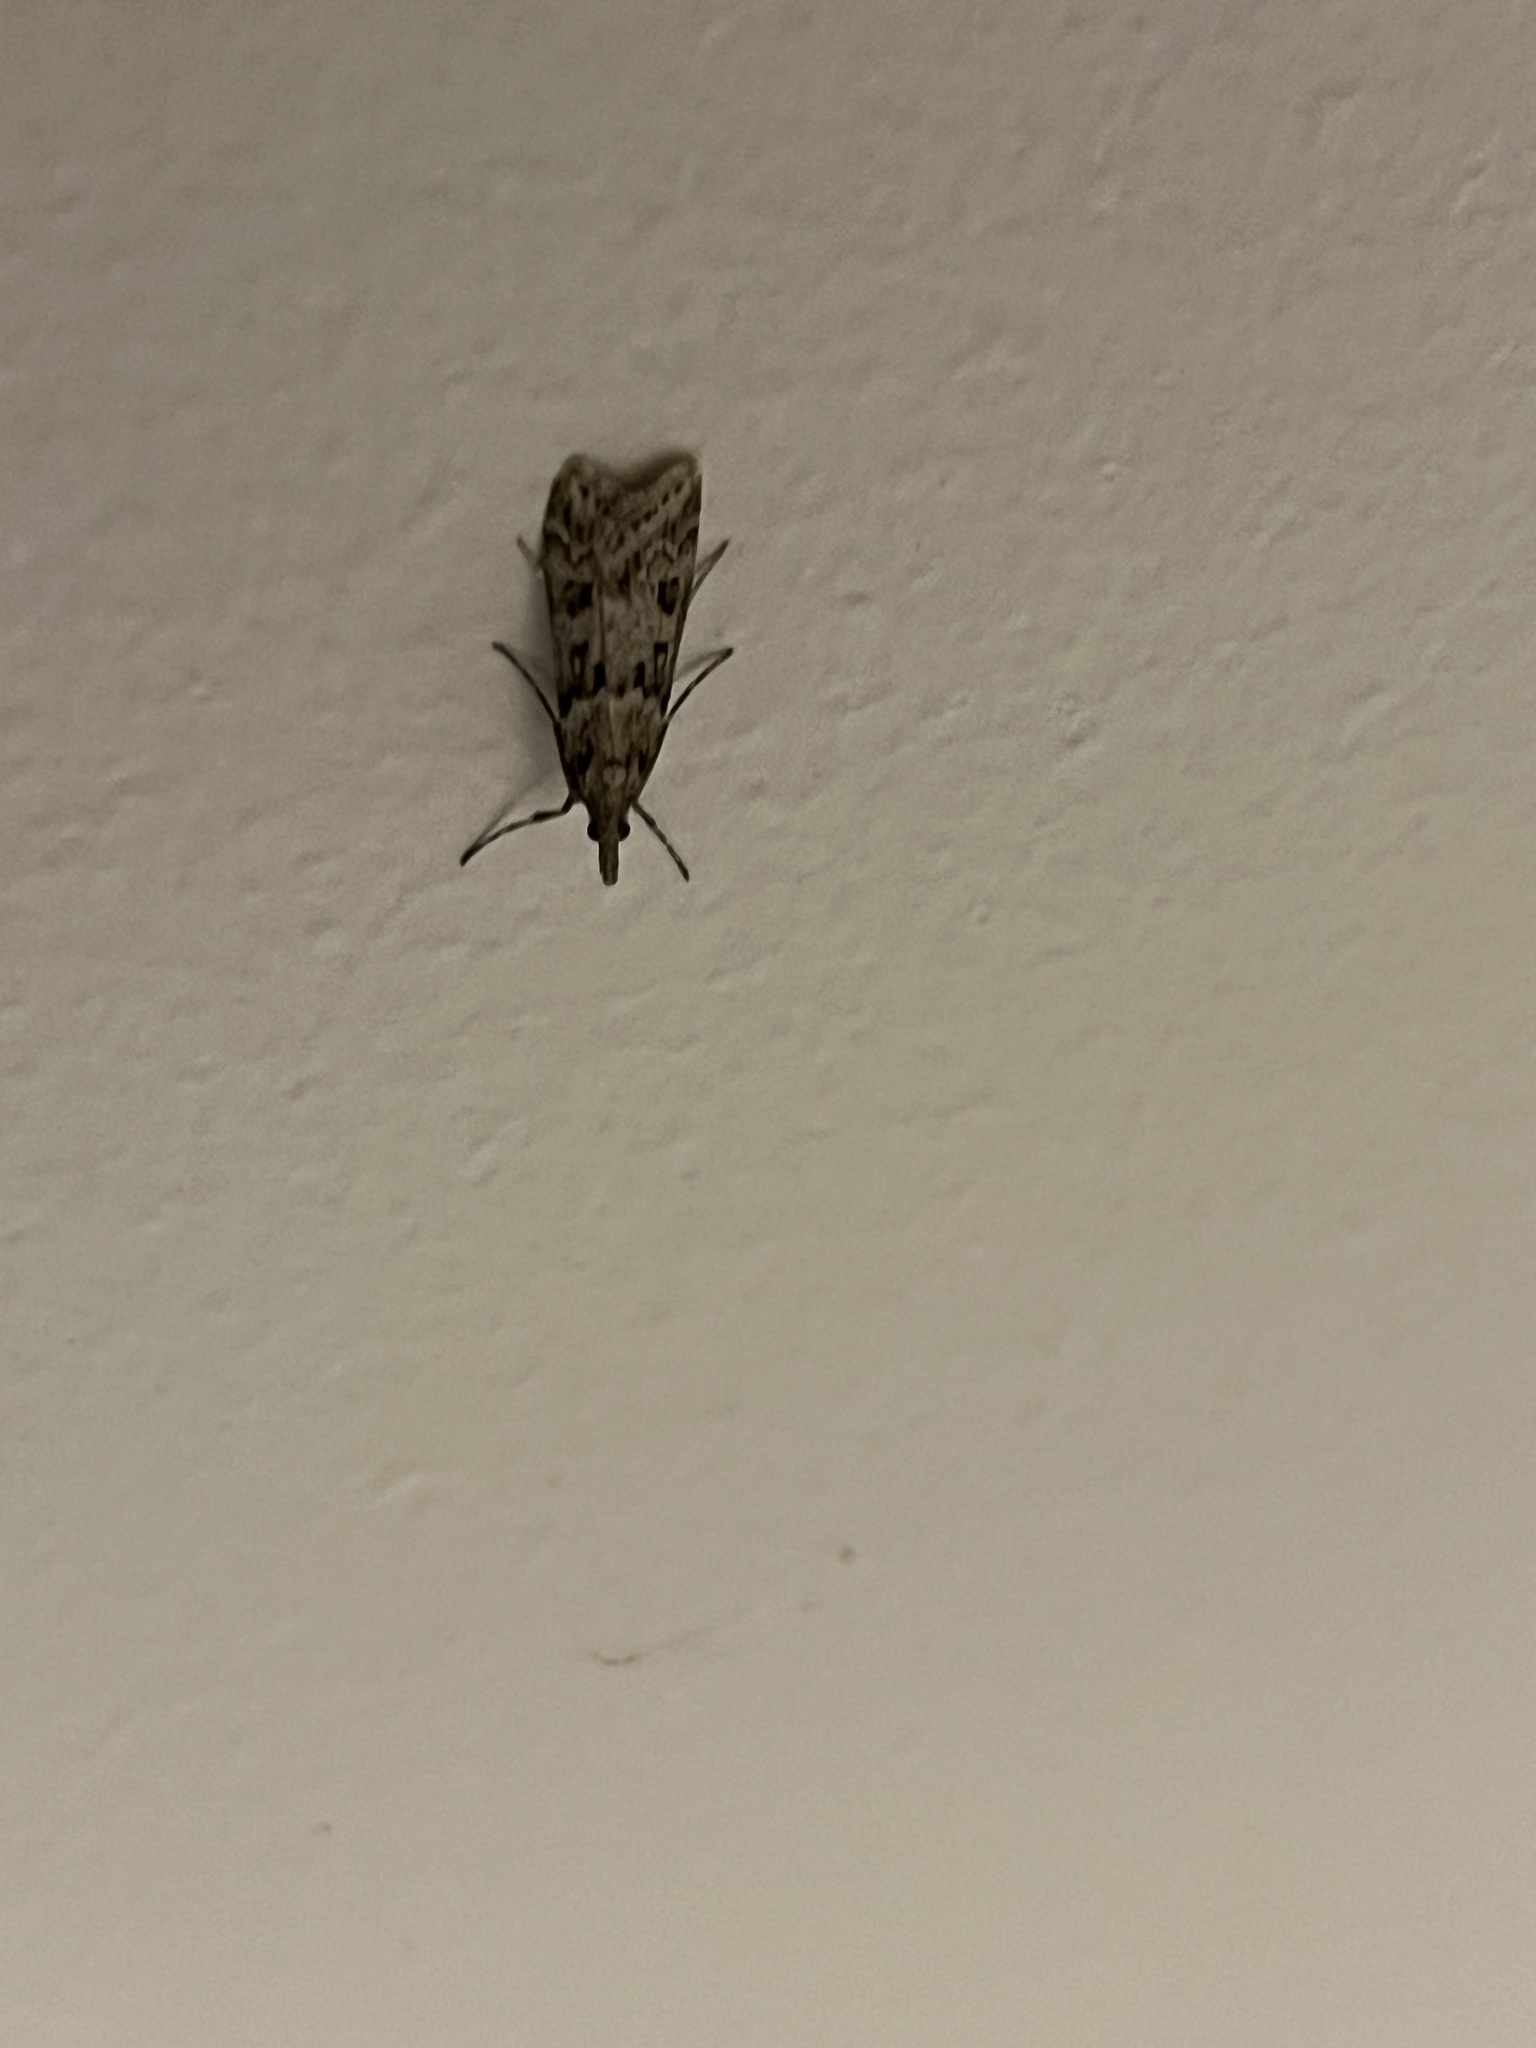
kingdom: Animalia
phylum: Arthropoda
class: Insecta
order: Lepidoptera
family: Crambidae
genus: Eudonia
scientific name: Eudonia angustea
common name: Narrow-winged grey
